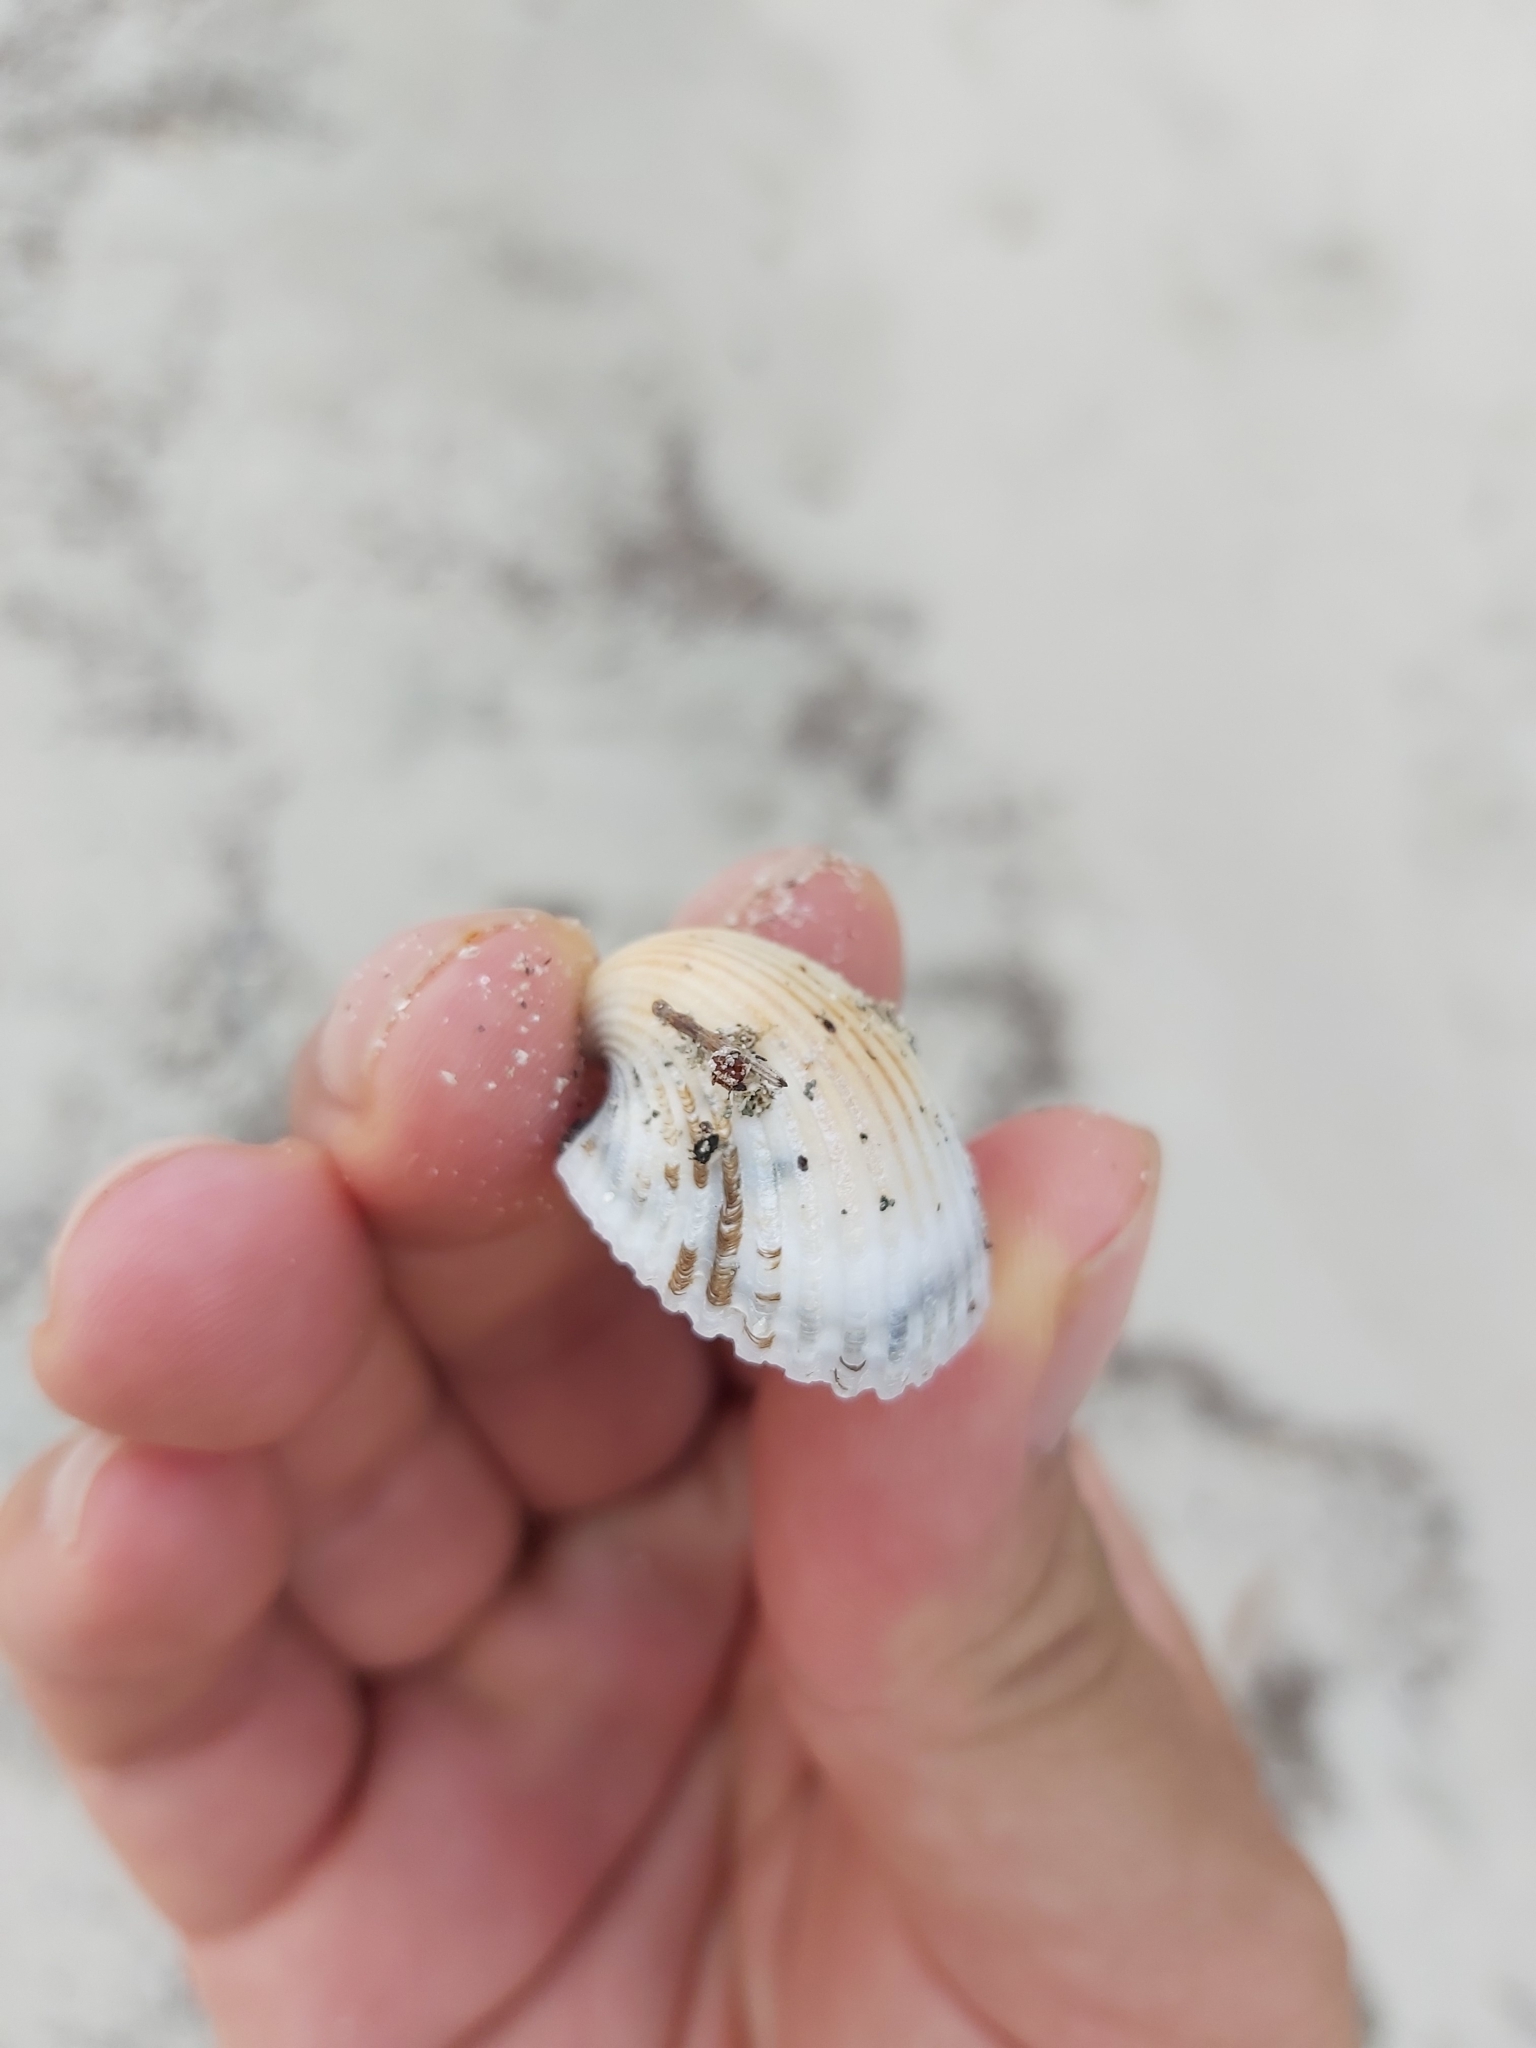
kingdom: Animalia
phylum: Mollusca
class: Bivalvia
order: Arcida
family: Arcidae
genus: Anadara
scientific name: Anadara pilula
